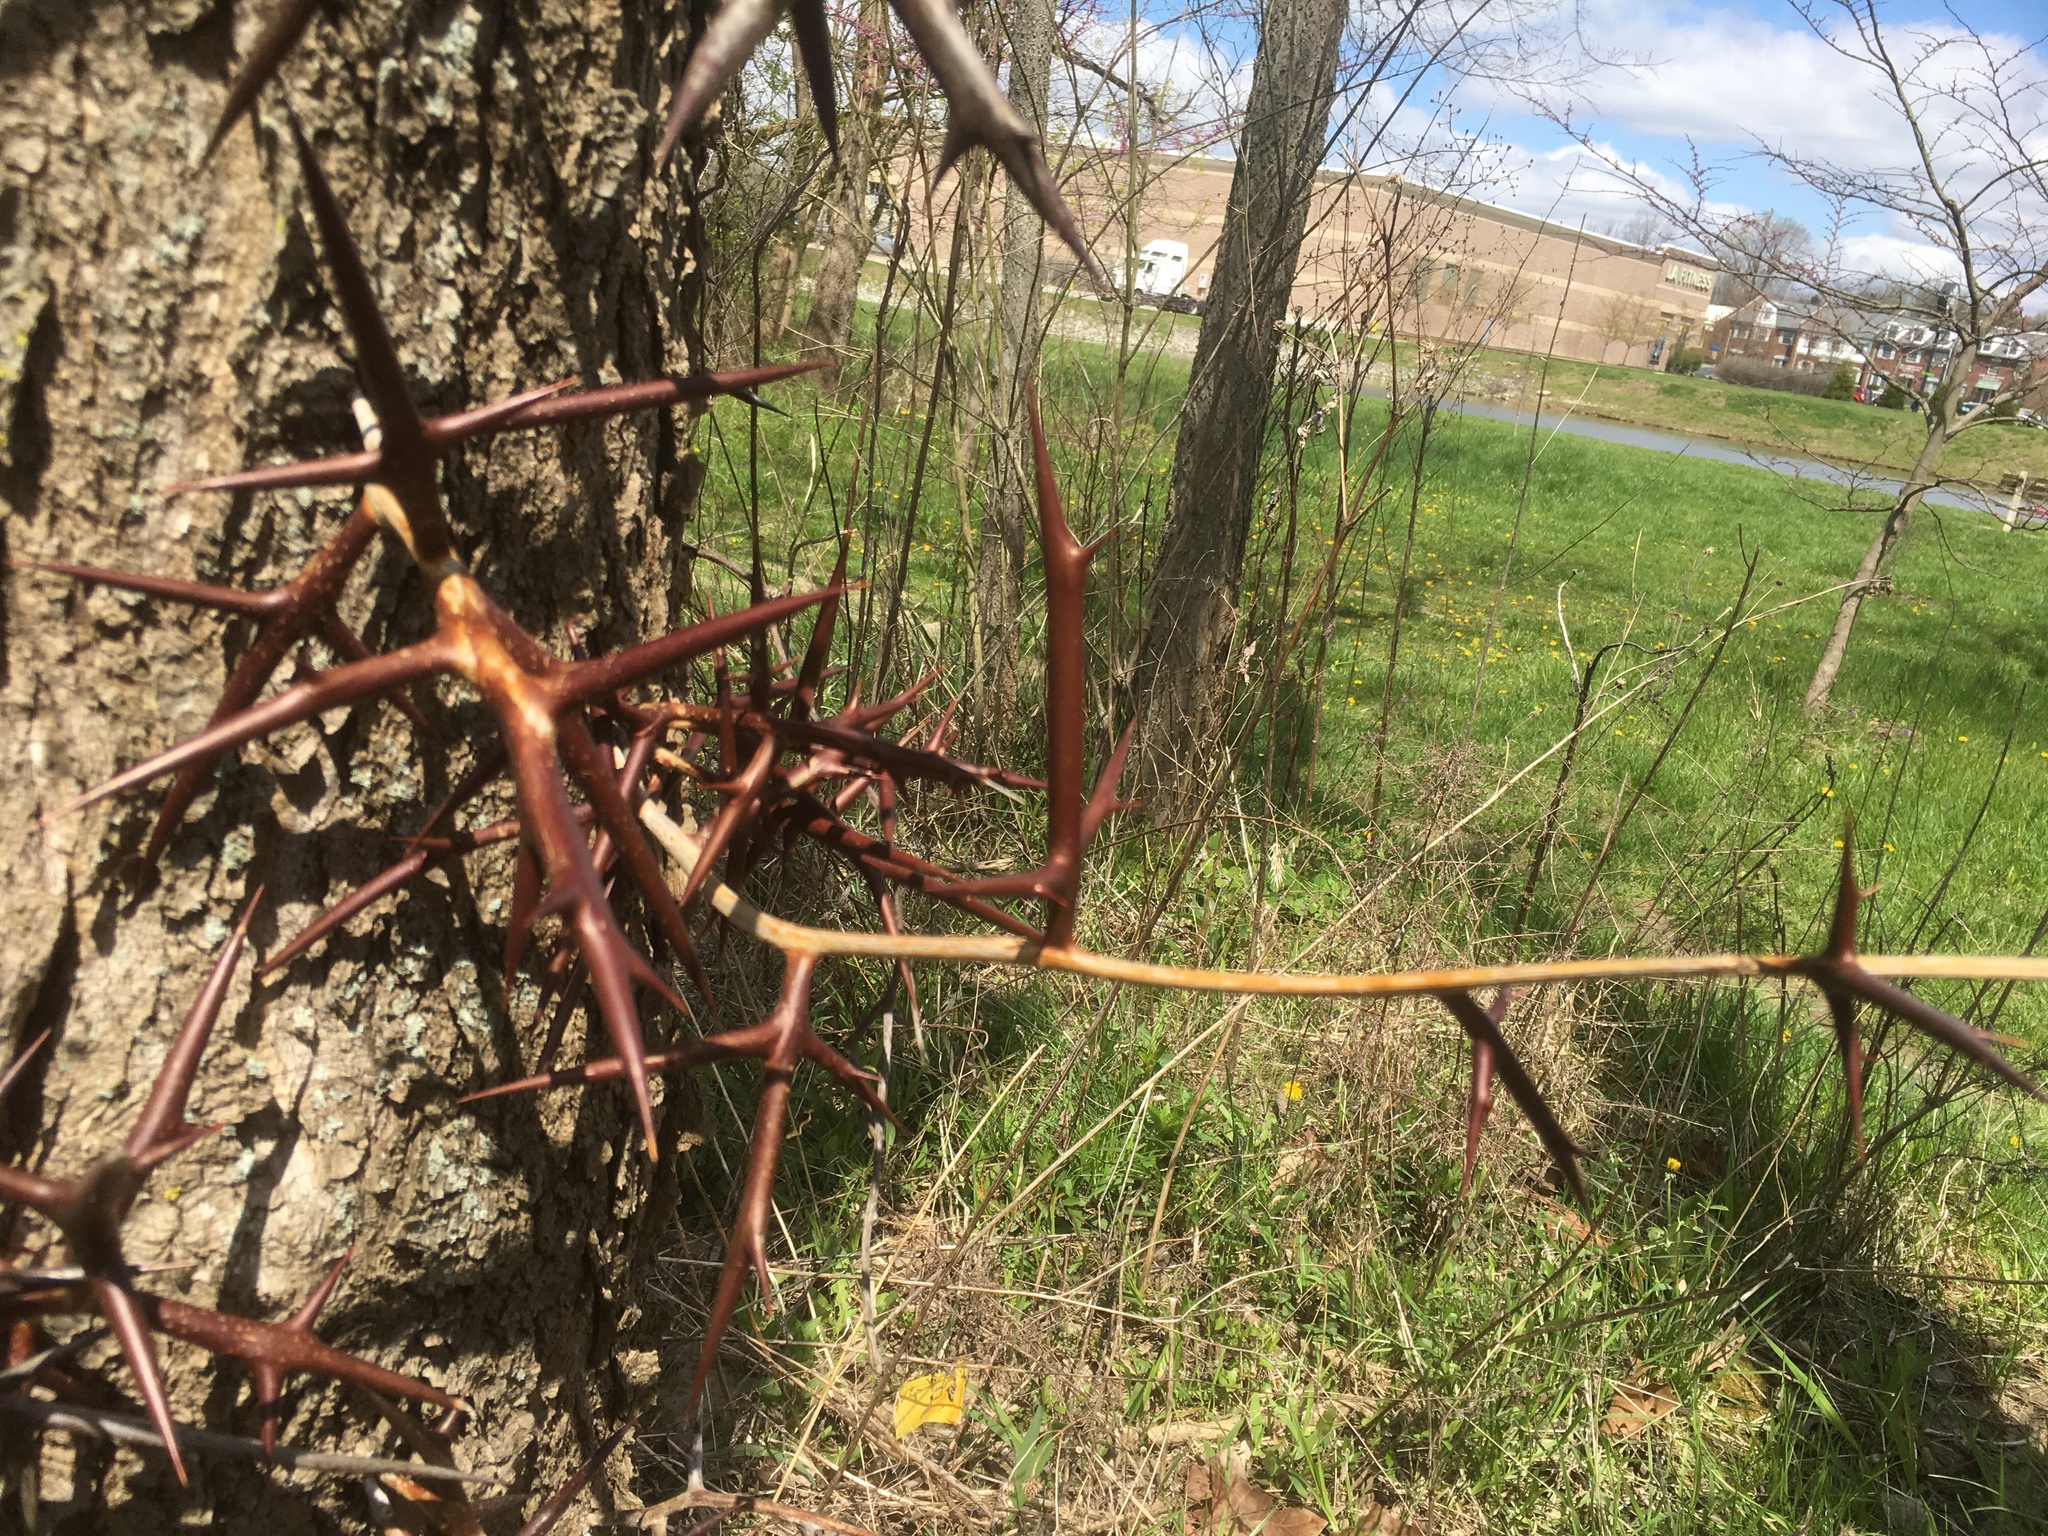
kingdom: Plantae
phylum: Tracheophyta
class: Magnoliopsida
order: Fabales
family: Fabaceae
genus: Gleditsia
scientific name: Gleditsia triacanthos
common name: Common honeylocust
